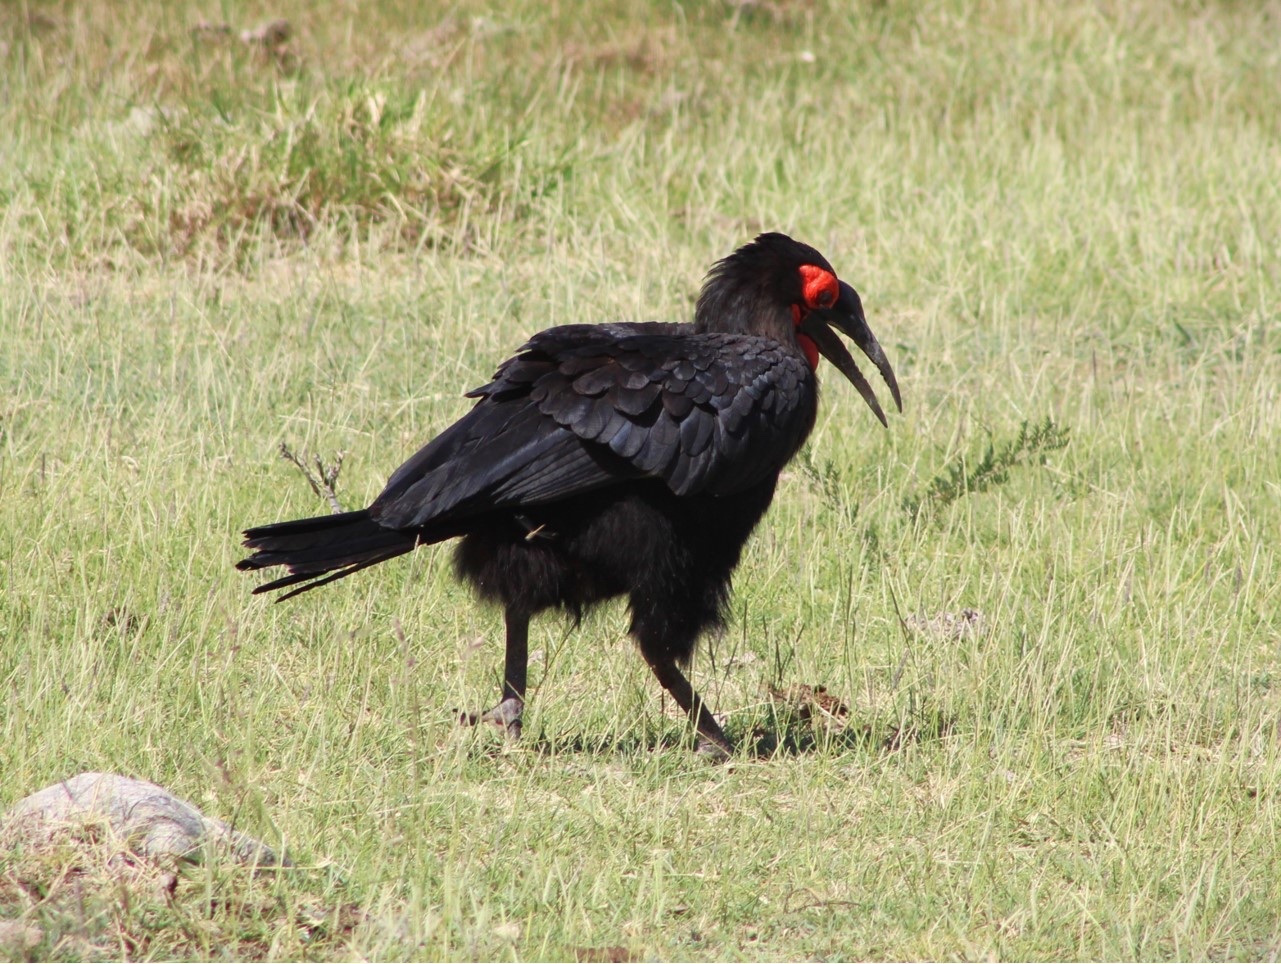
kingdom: Animalia
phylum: Chordata
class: Aves
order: Bucerotiformes
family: Bucorvidae
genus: Bucorvus
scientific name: Bucorvus leadbeateri
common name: Southern ground-hornbill
